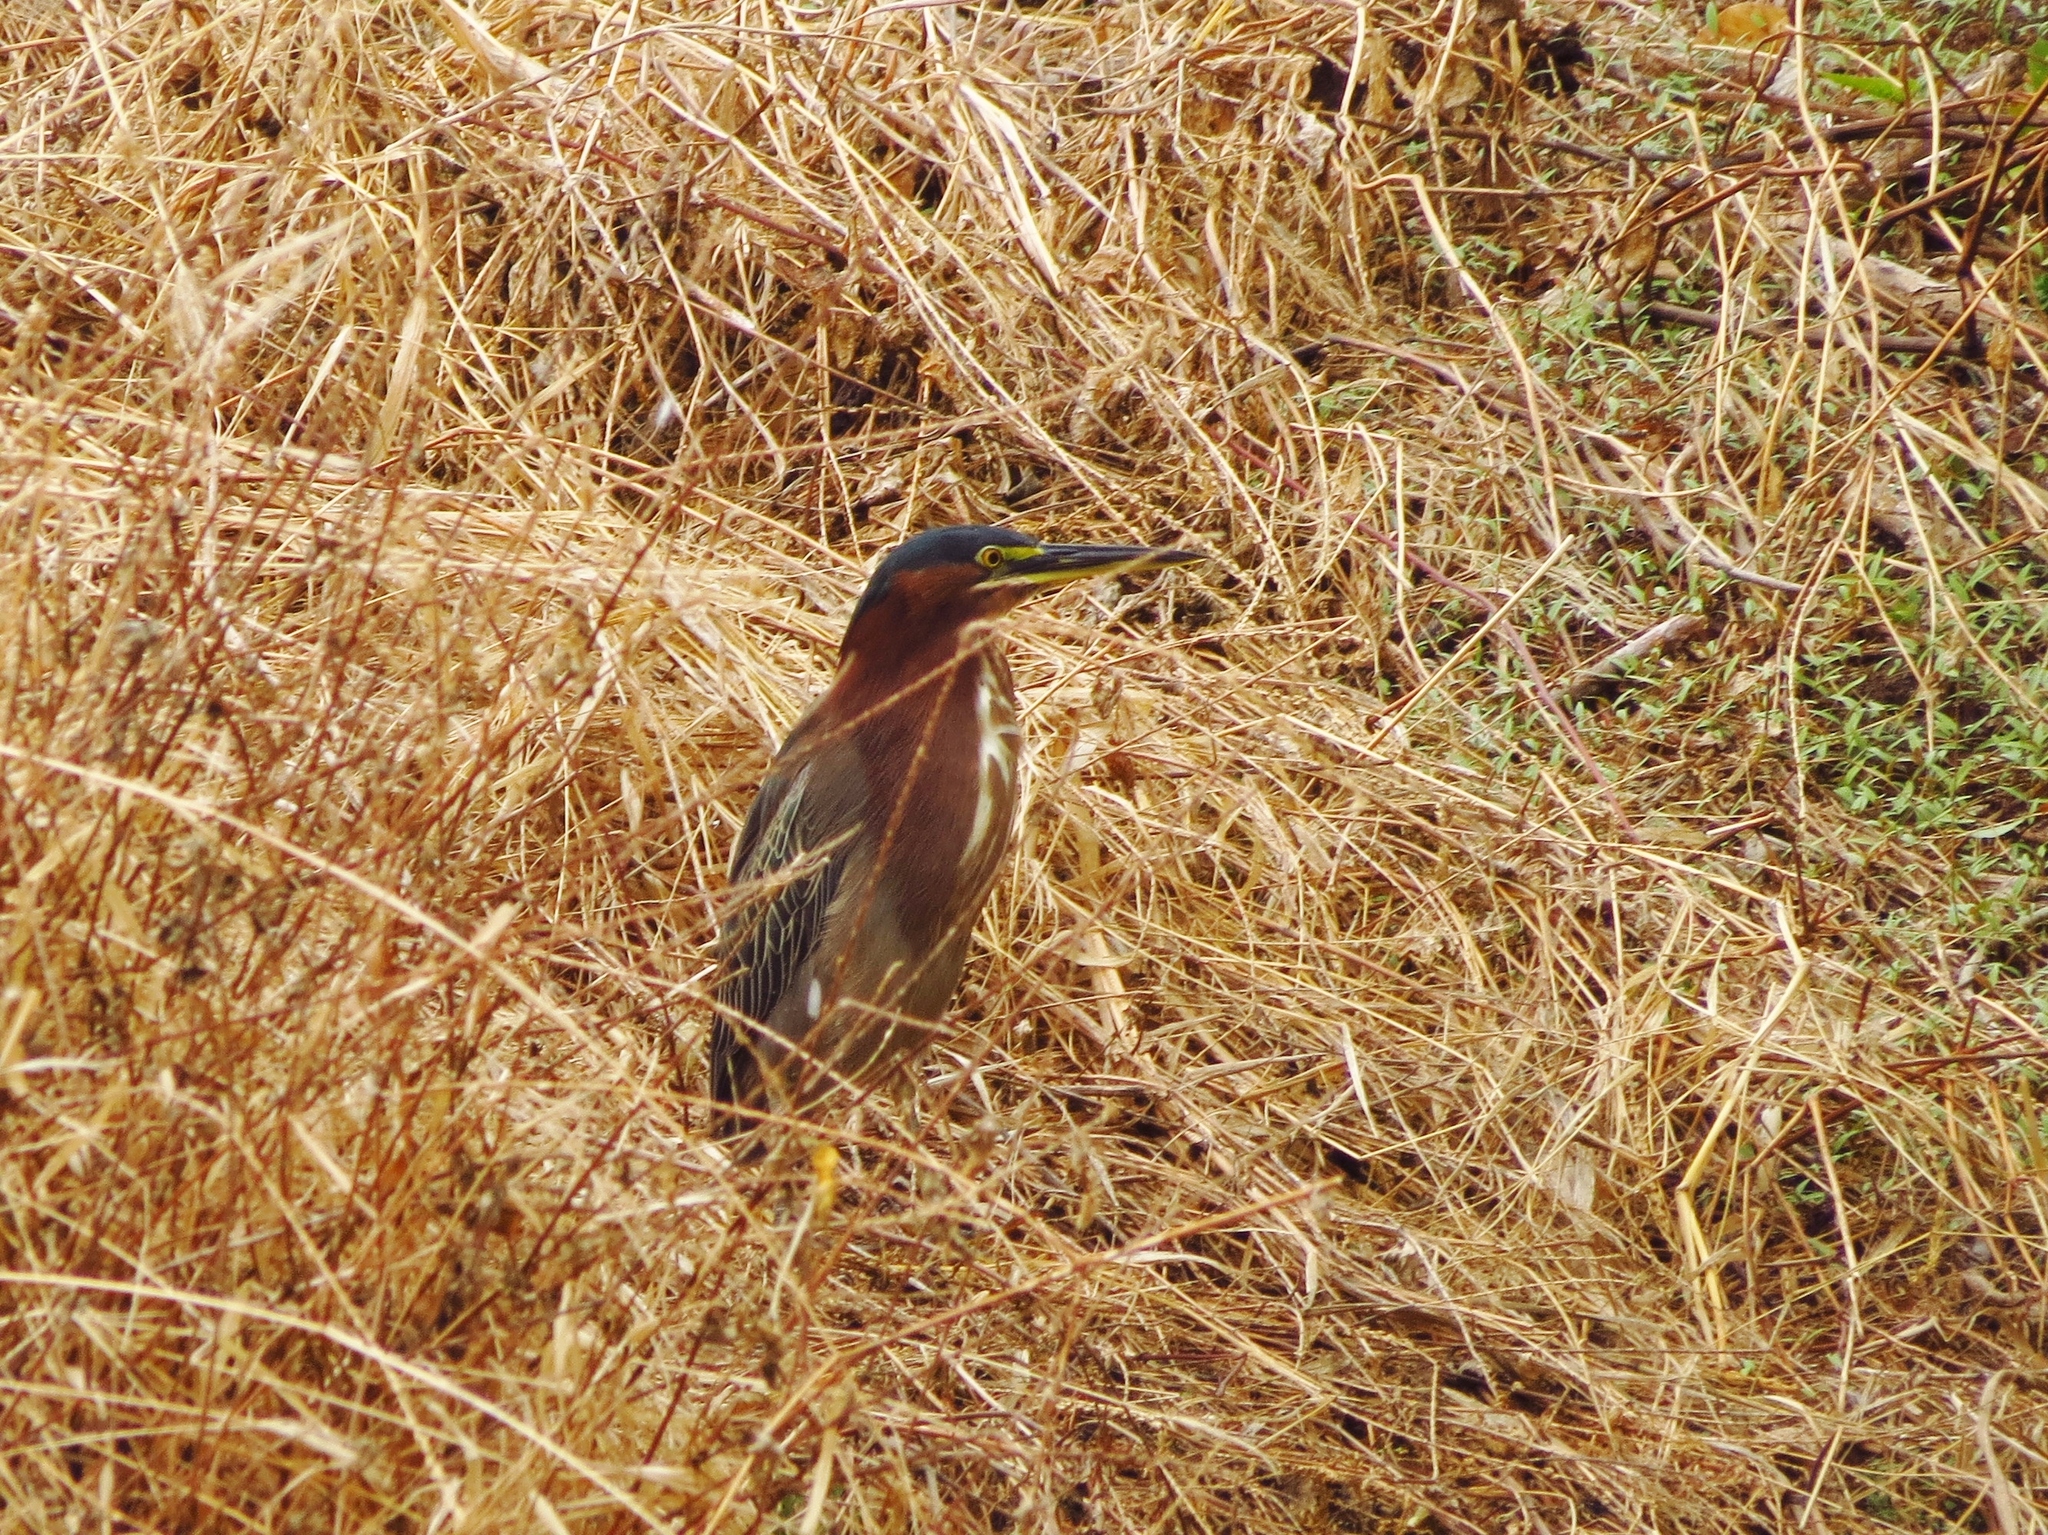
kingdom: Animalia
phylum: Chordata
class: Aves
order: Pelecaniformes
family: Ardeidae
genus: Butorides
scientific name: Butorides virescens
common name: Green heron
